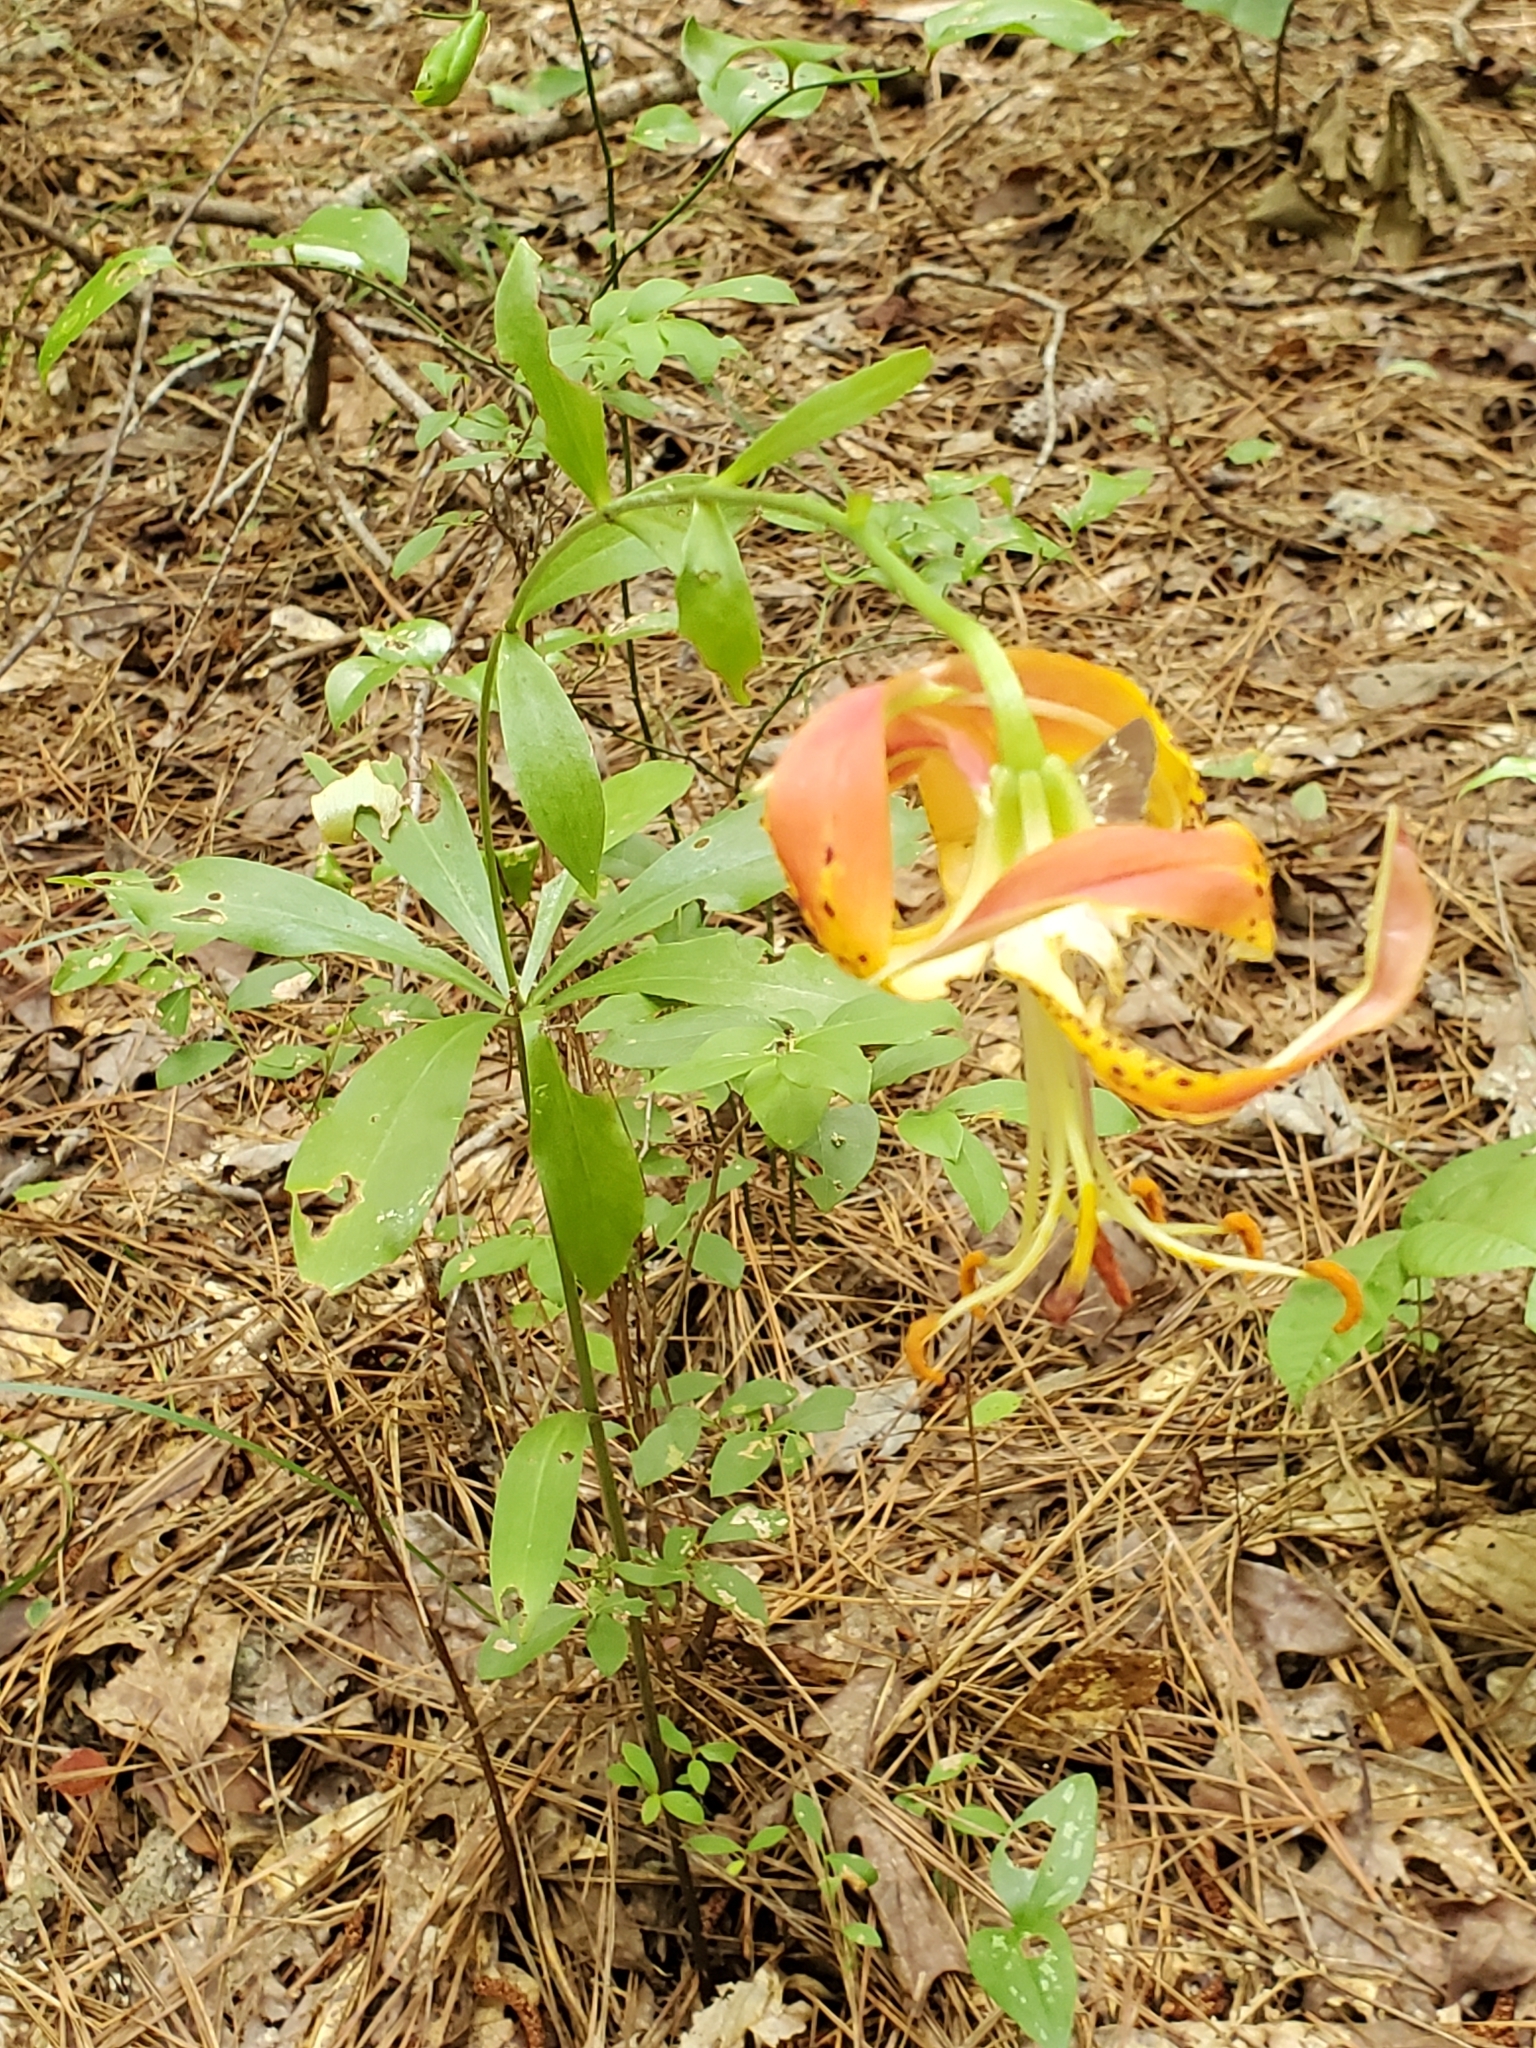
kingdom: Plantae
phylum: Tracheophyta
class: Liliopsida
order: Liliales
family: Liliaceae
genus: Lilium
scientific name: Lilium michauxii
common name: Carolina lily
